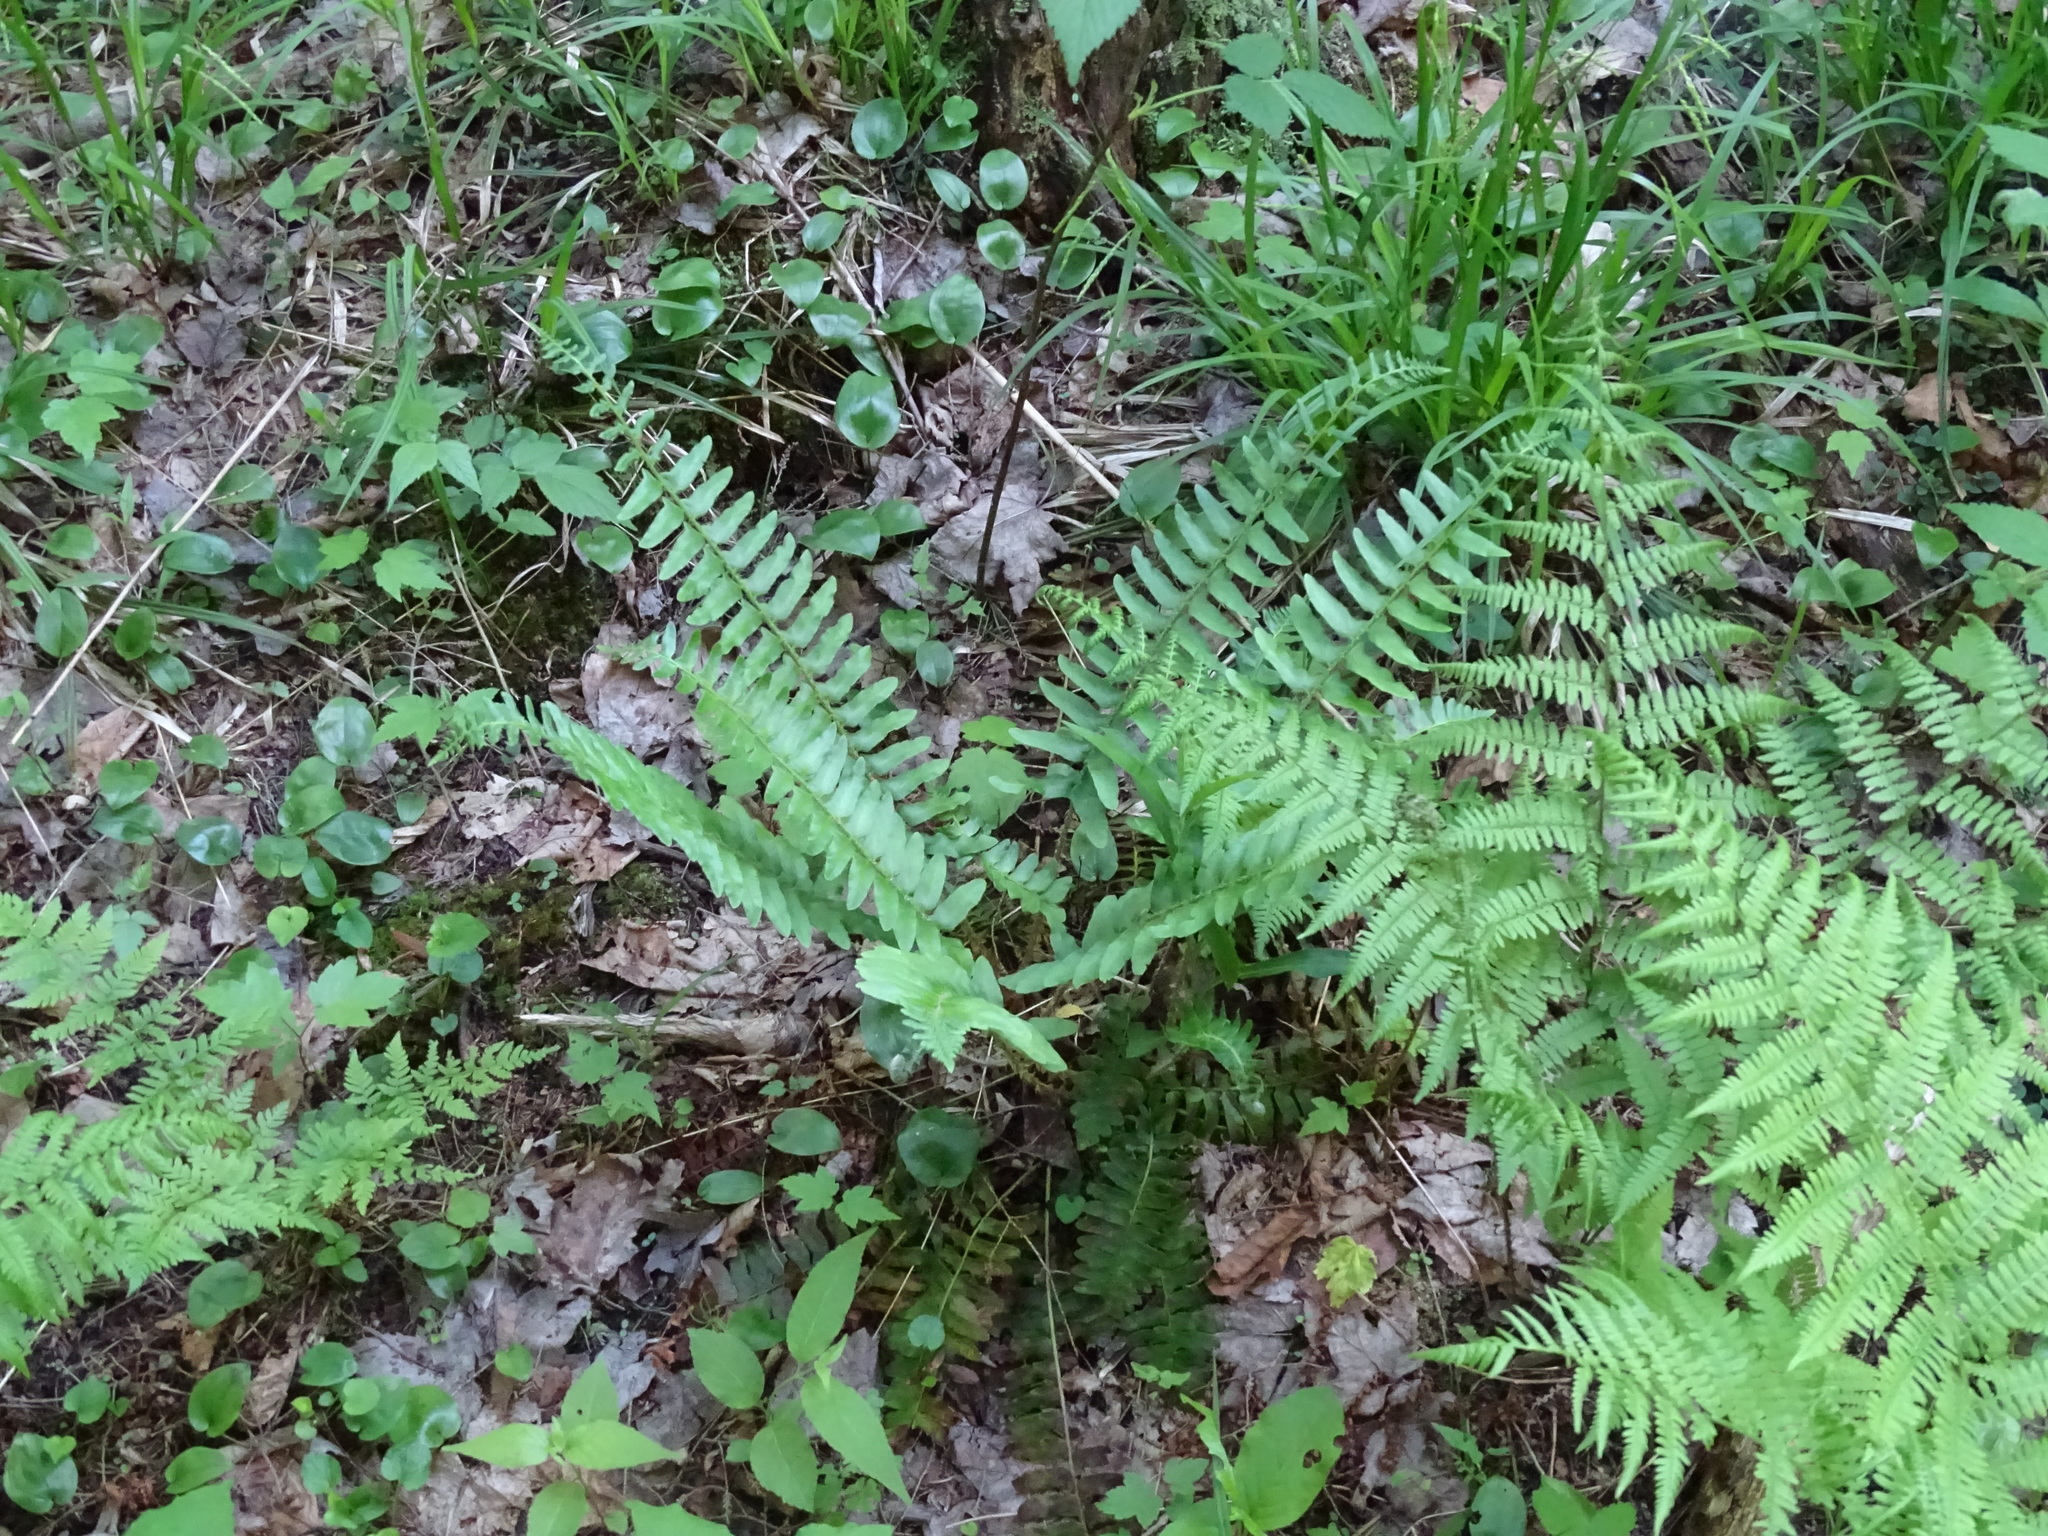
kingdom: Plantae
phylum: Tracheophyta
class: Polypodiopsida
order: Polypodiales
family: Dryopteridaceae
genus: Polystichum
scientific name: Polystichum acrostichoides
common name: Christmas fern
